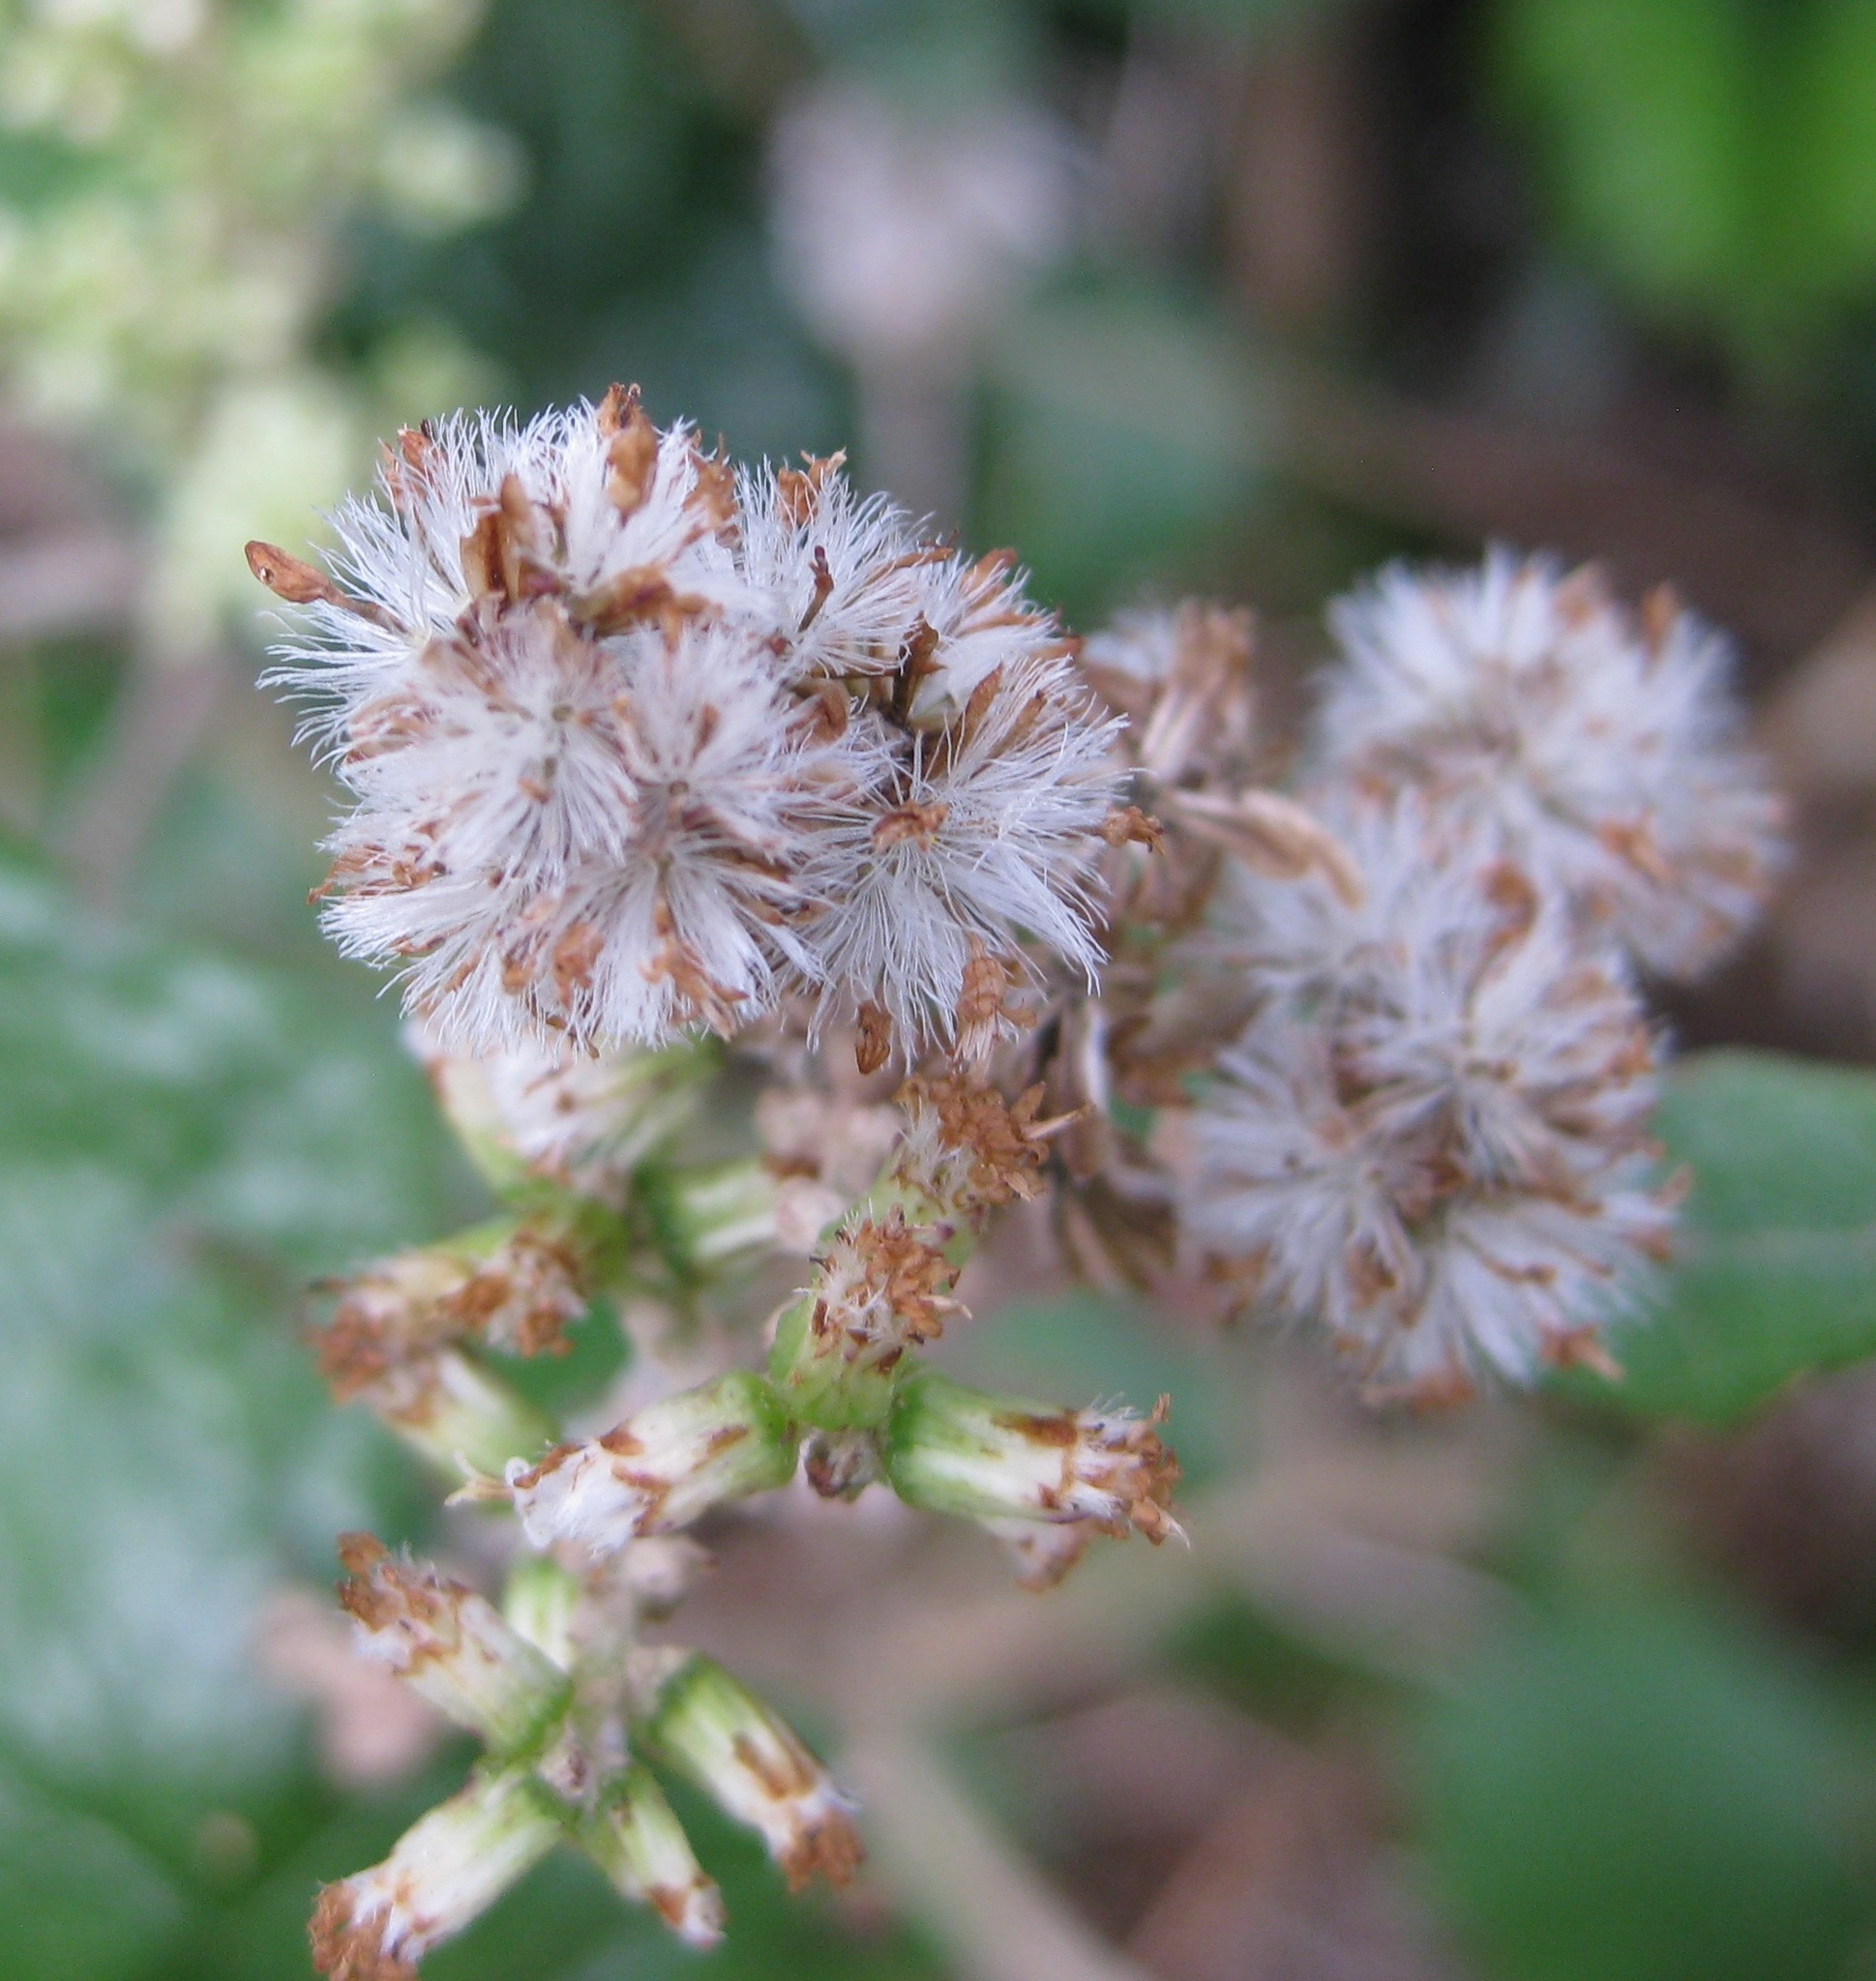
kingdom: Plantae
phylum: Tracheophyta
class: Magnoliopsida
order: Asterales
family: Asteraceae
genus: Brachyglottis
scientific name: Brachyglottis repanda
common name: Hedge ragwort
